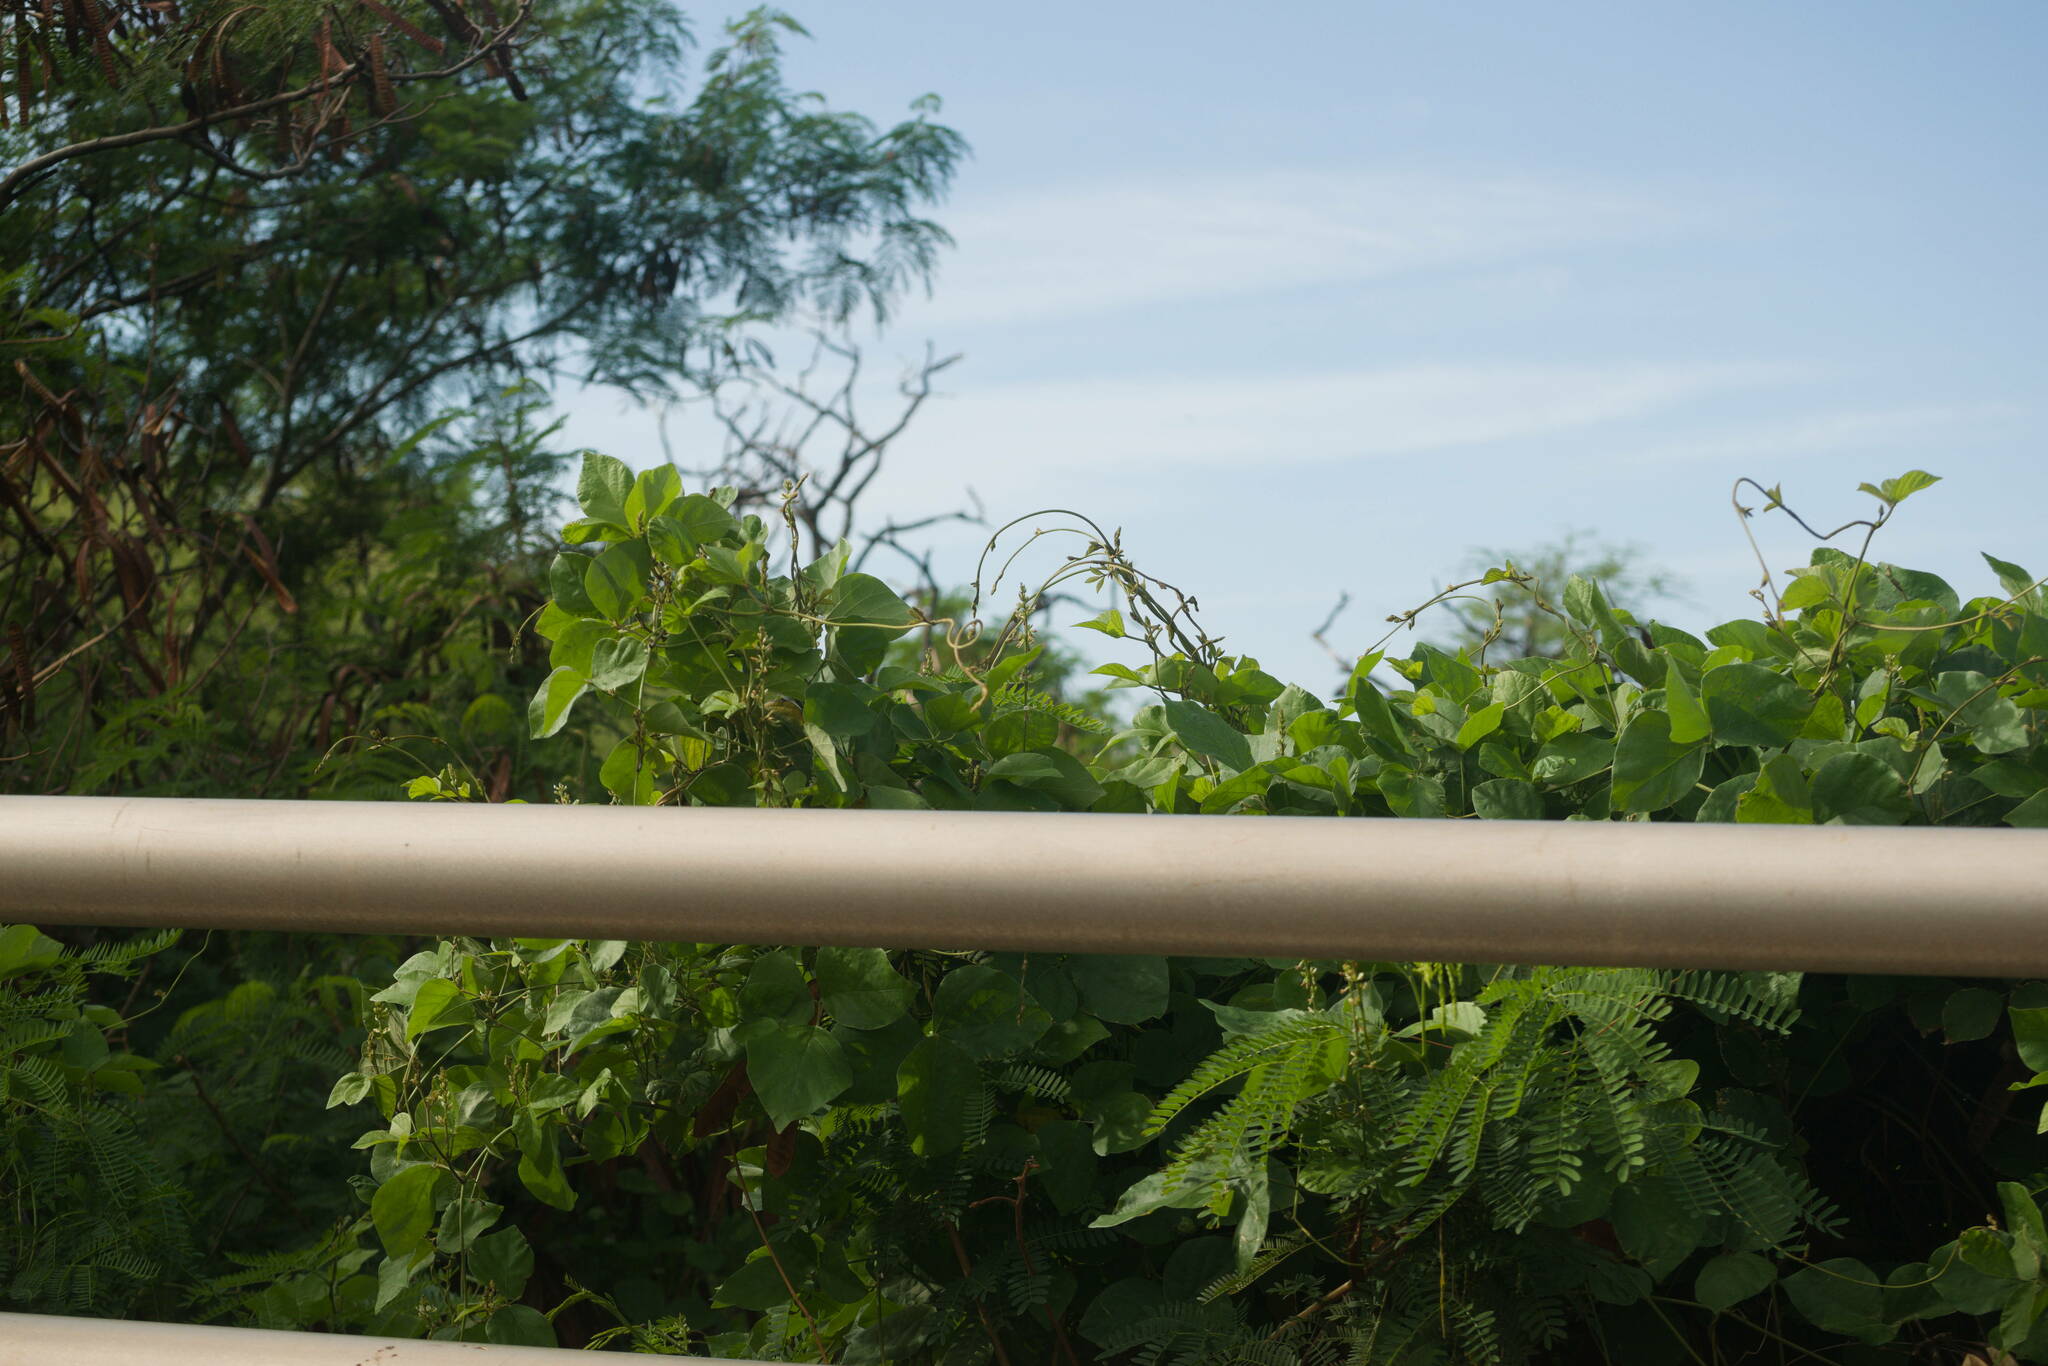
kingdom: Plantae
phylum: Tracheophyta
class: Magnoliopsida
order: Fabales
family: Fabaceae
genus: Neonotonia
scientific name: Neonotonia wightii
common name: Perennial soybean
